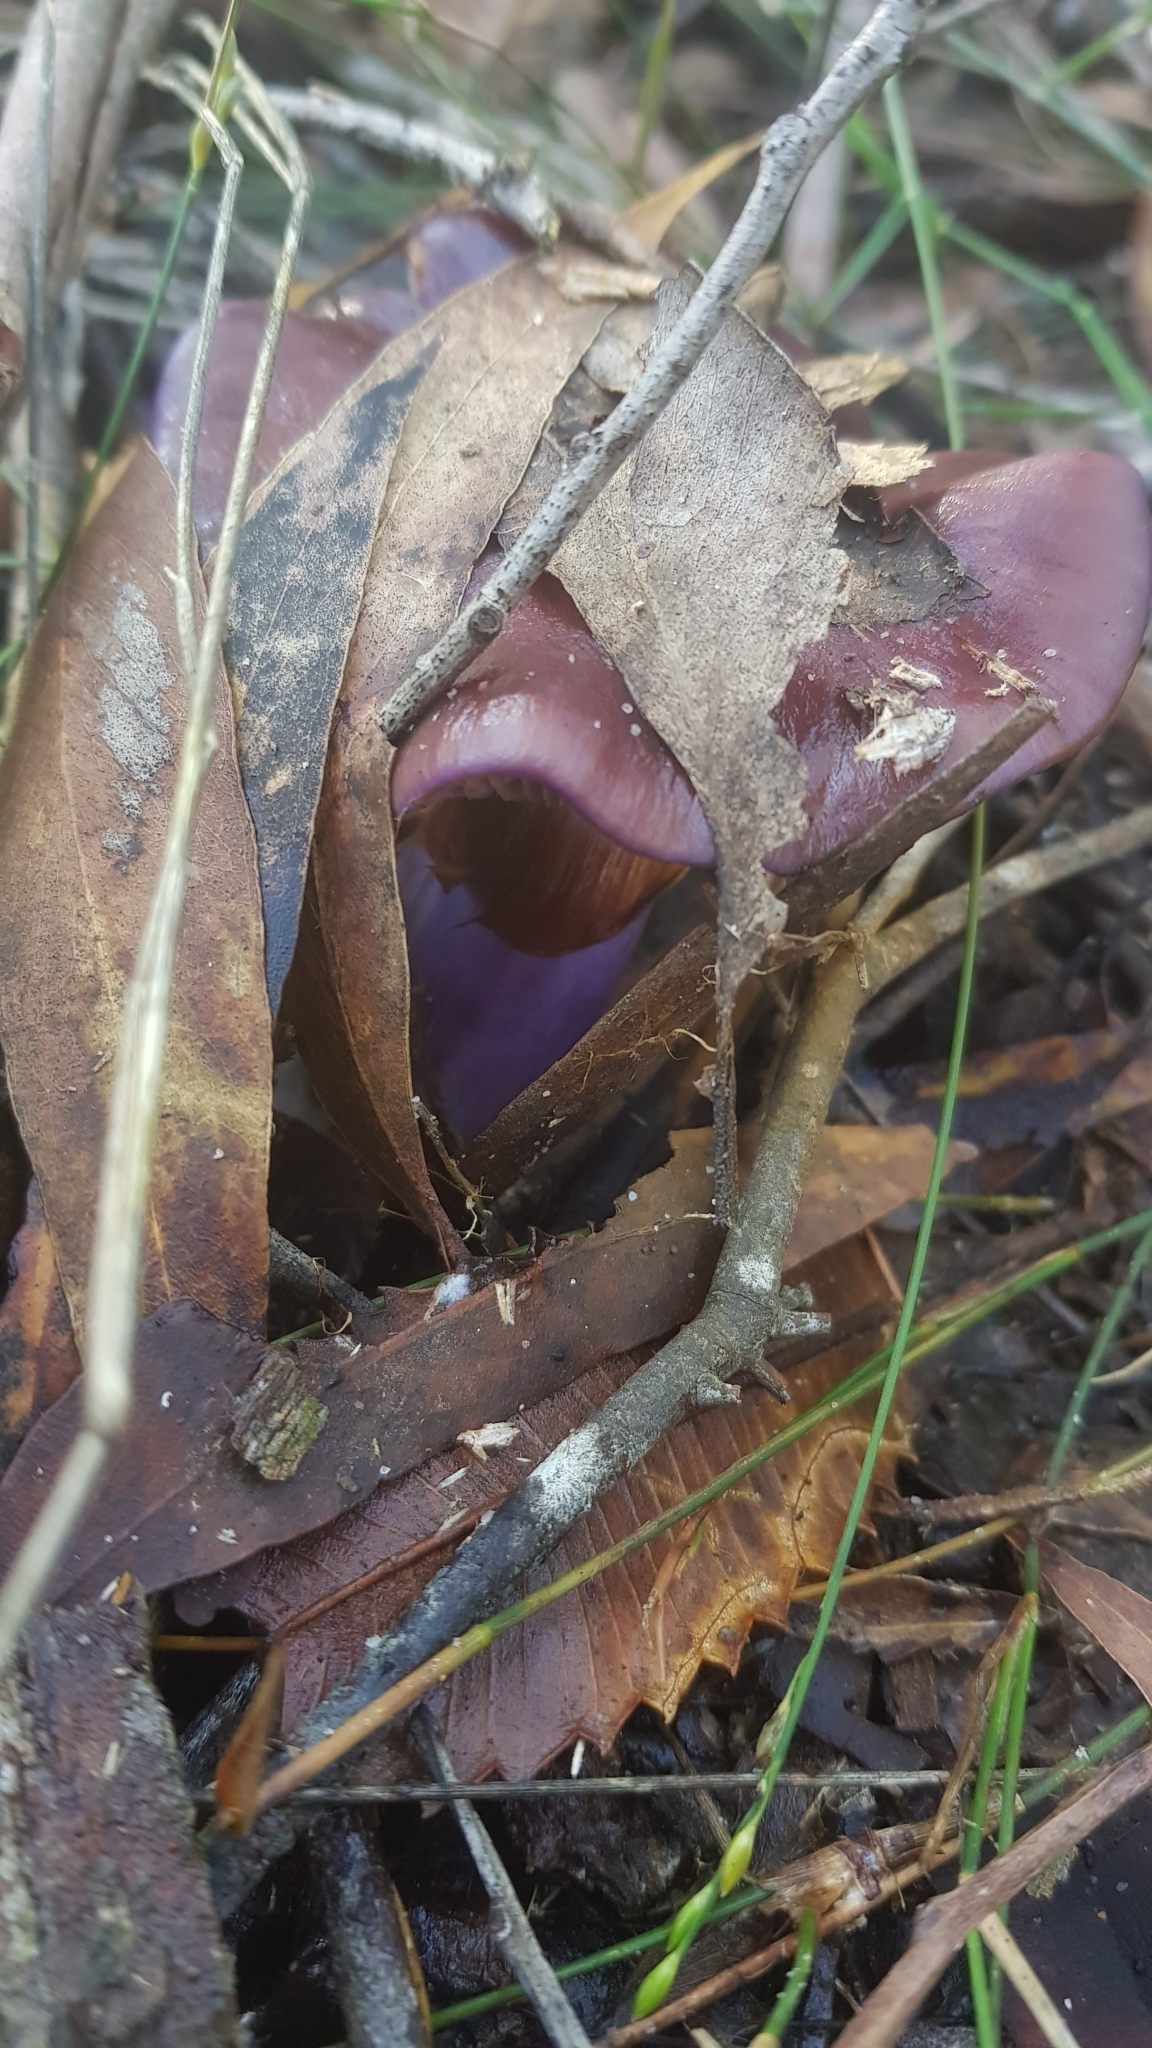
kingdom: Fungi
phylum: Basidiomycota
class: Agaricomycetes
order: Agaricales
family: Cortinariaceae
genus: Cortinarius
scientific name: Cortinarius archeri
